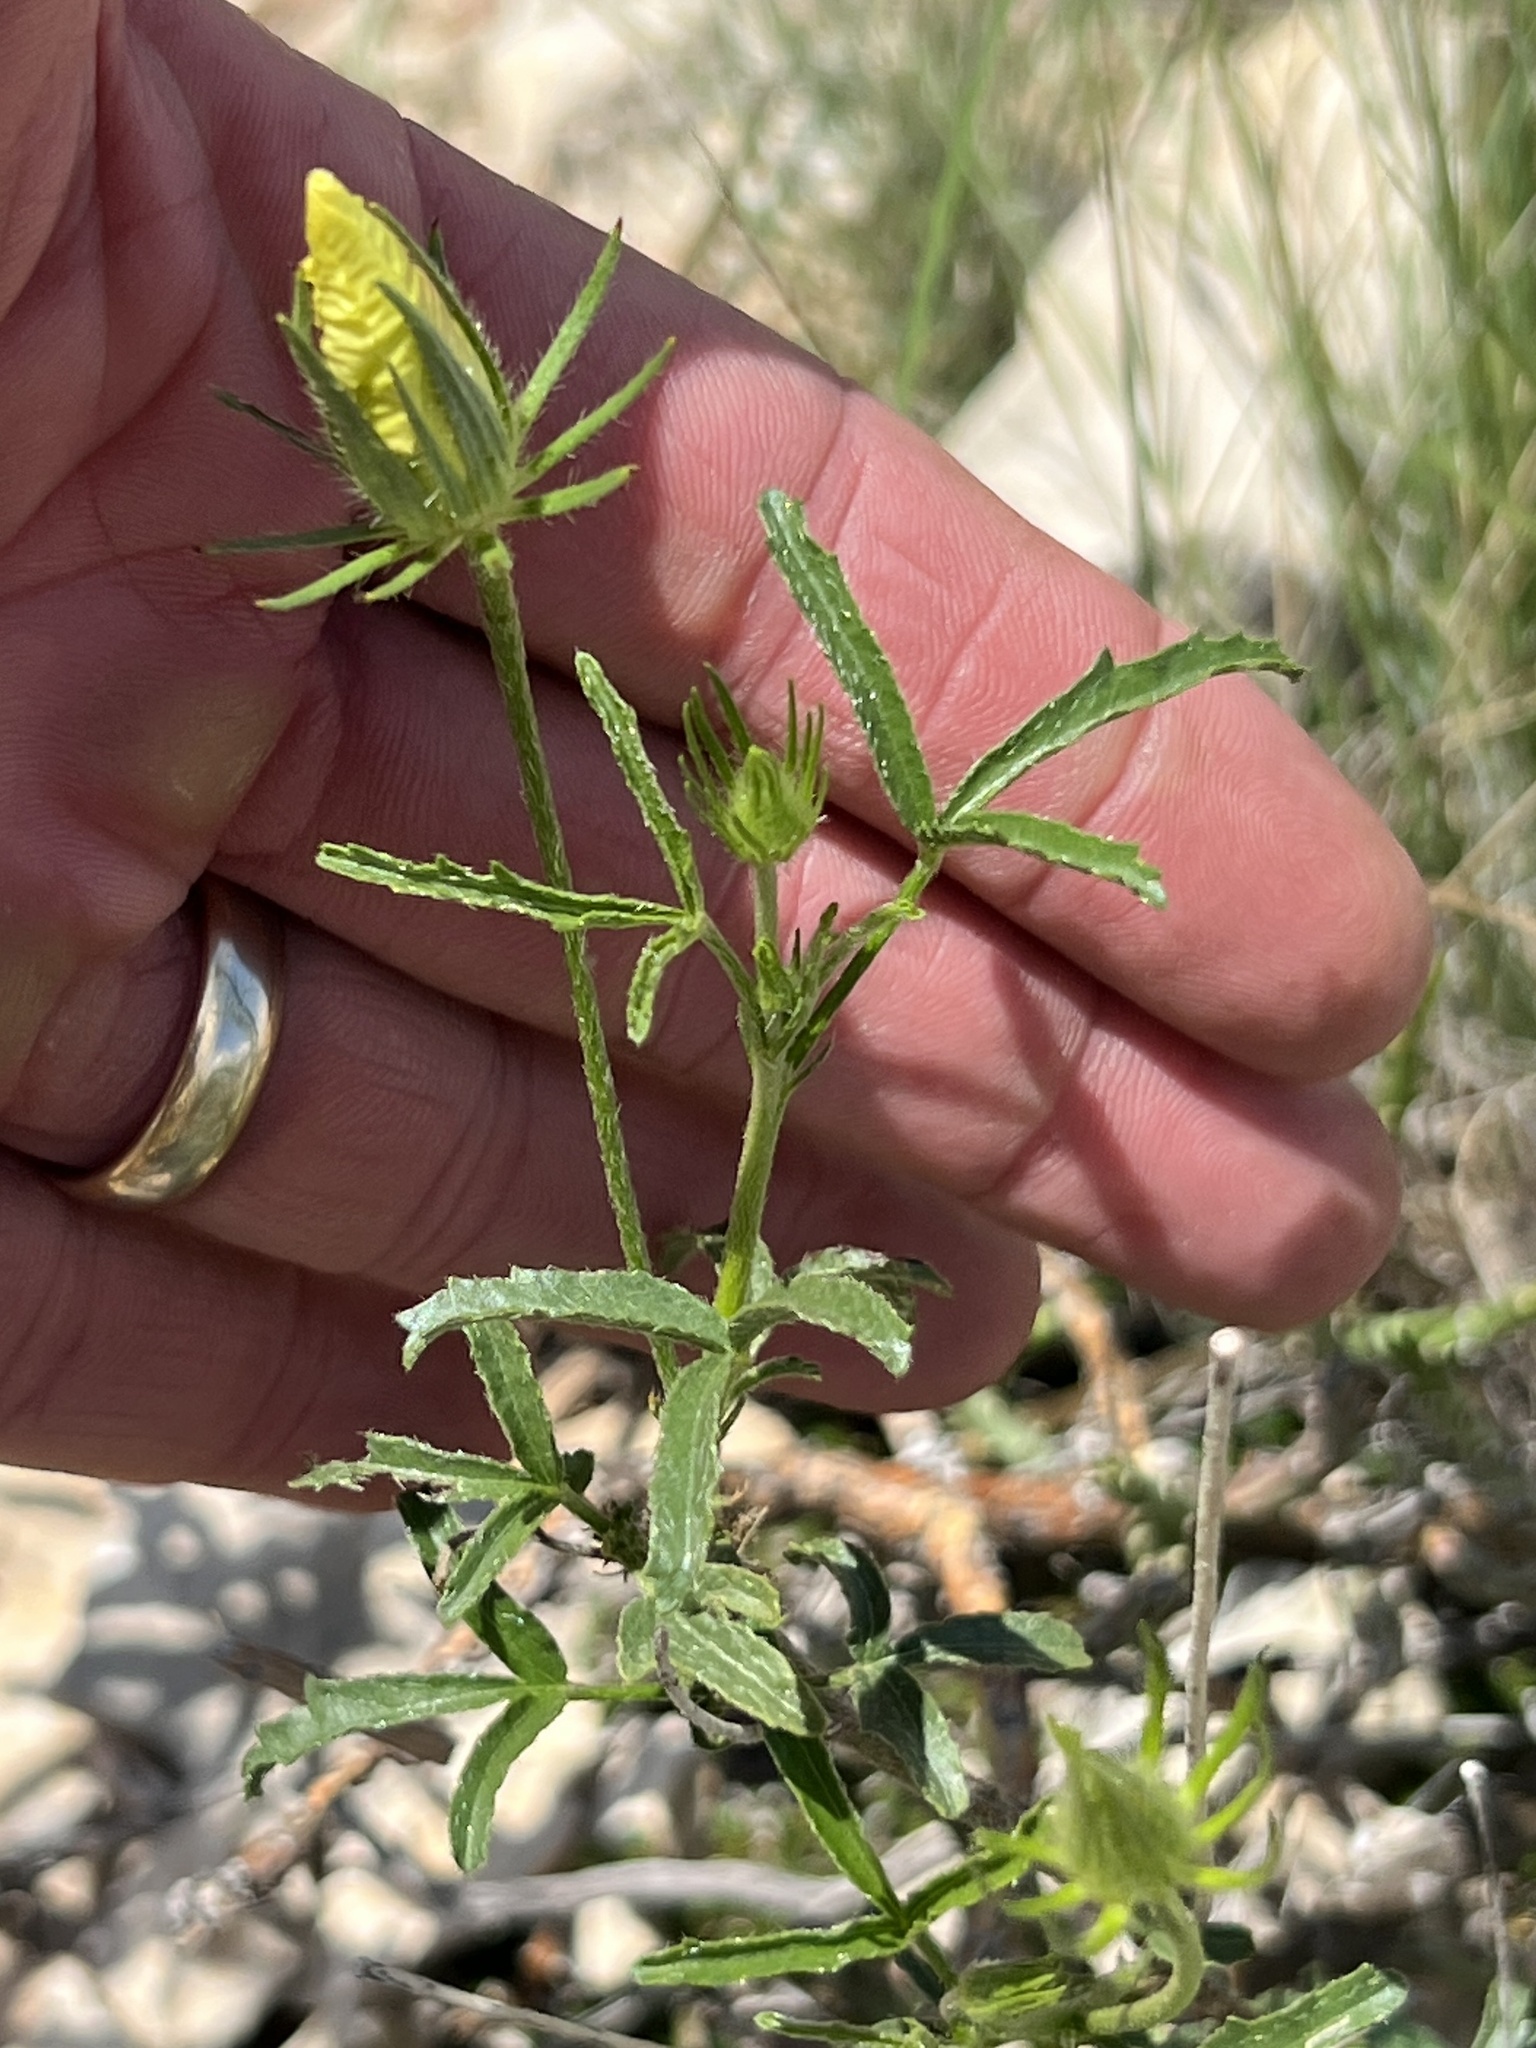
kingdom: Plantae
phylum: Tracheophyta
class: Magnoliopsida
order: Malvales
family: Malvaceae
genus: Hibiscus
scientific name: Hibiscus coulteri
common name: Desert rose-mallow
